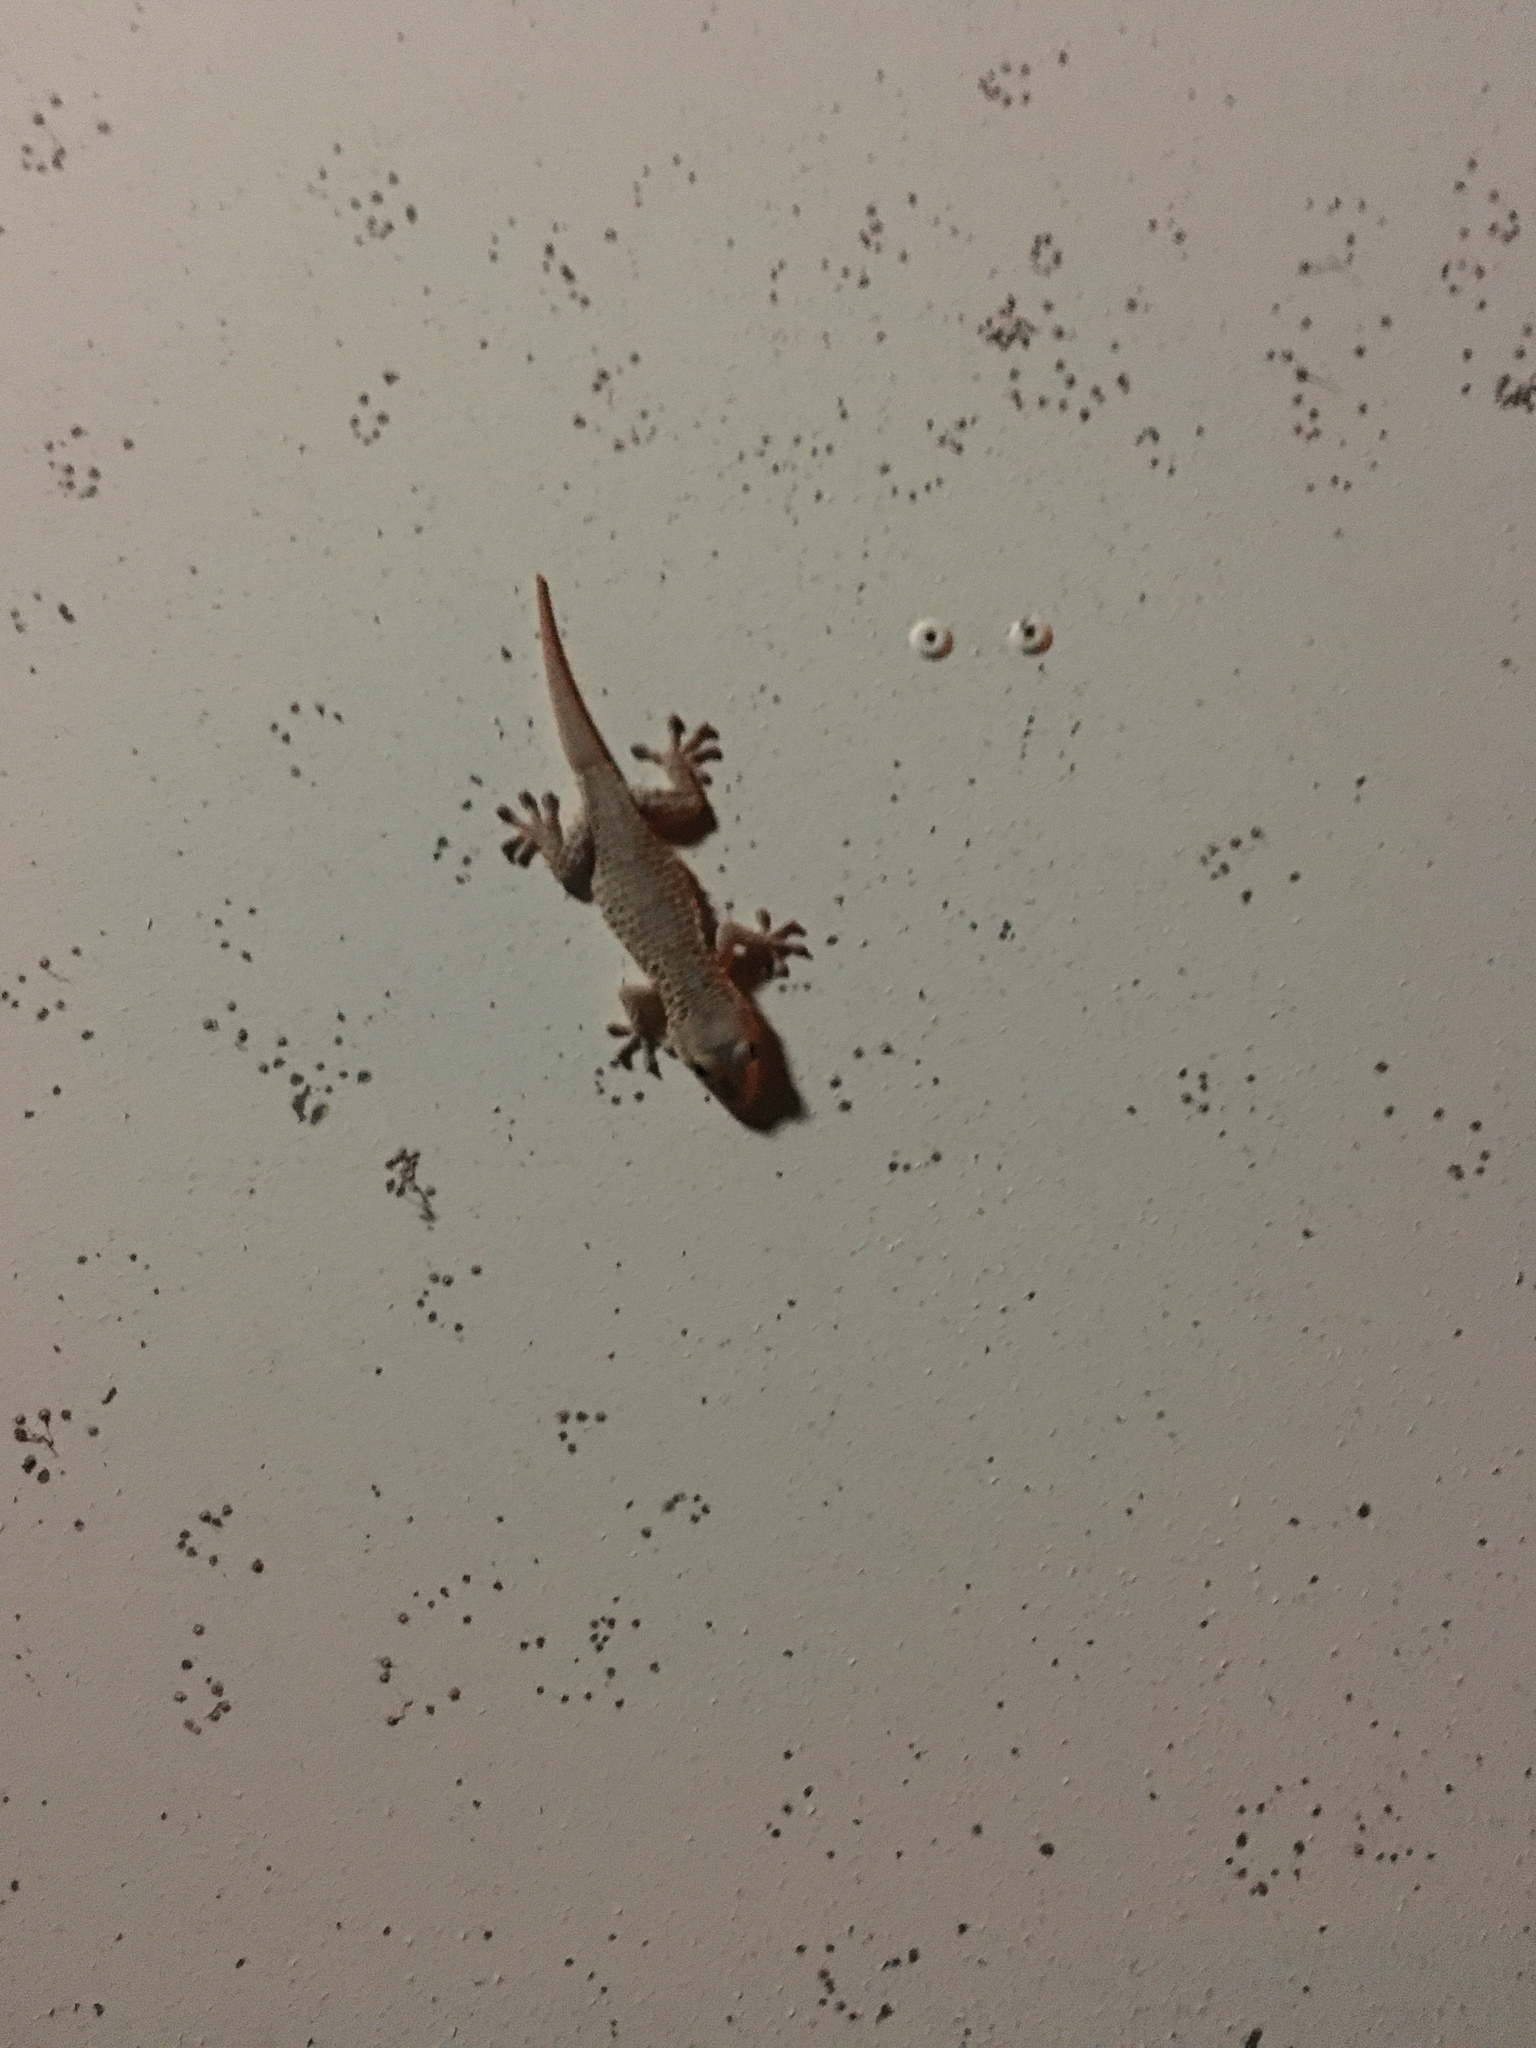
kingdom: Animalia
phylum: Chordata
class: Squamata
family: Phyllodactylidae
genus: Tarentola
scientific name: Tarentola mauritanica
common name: Moorish gecko
